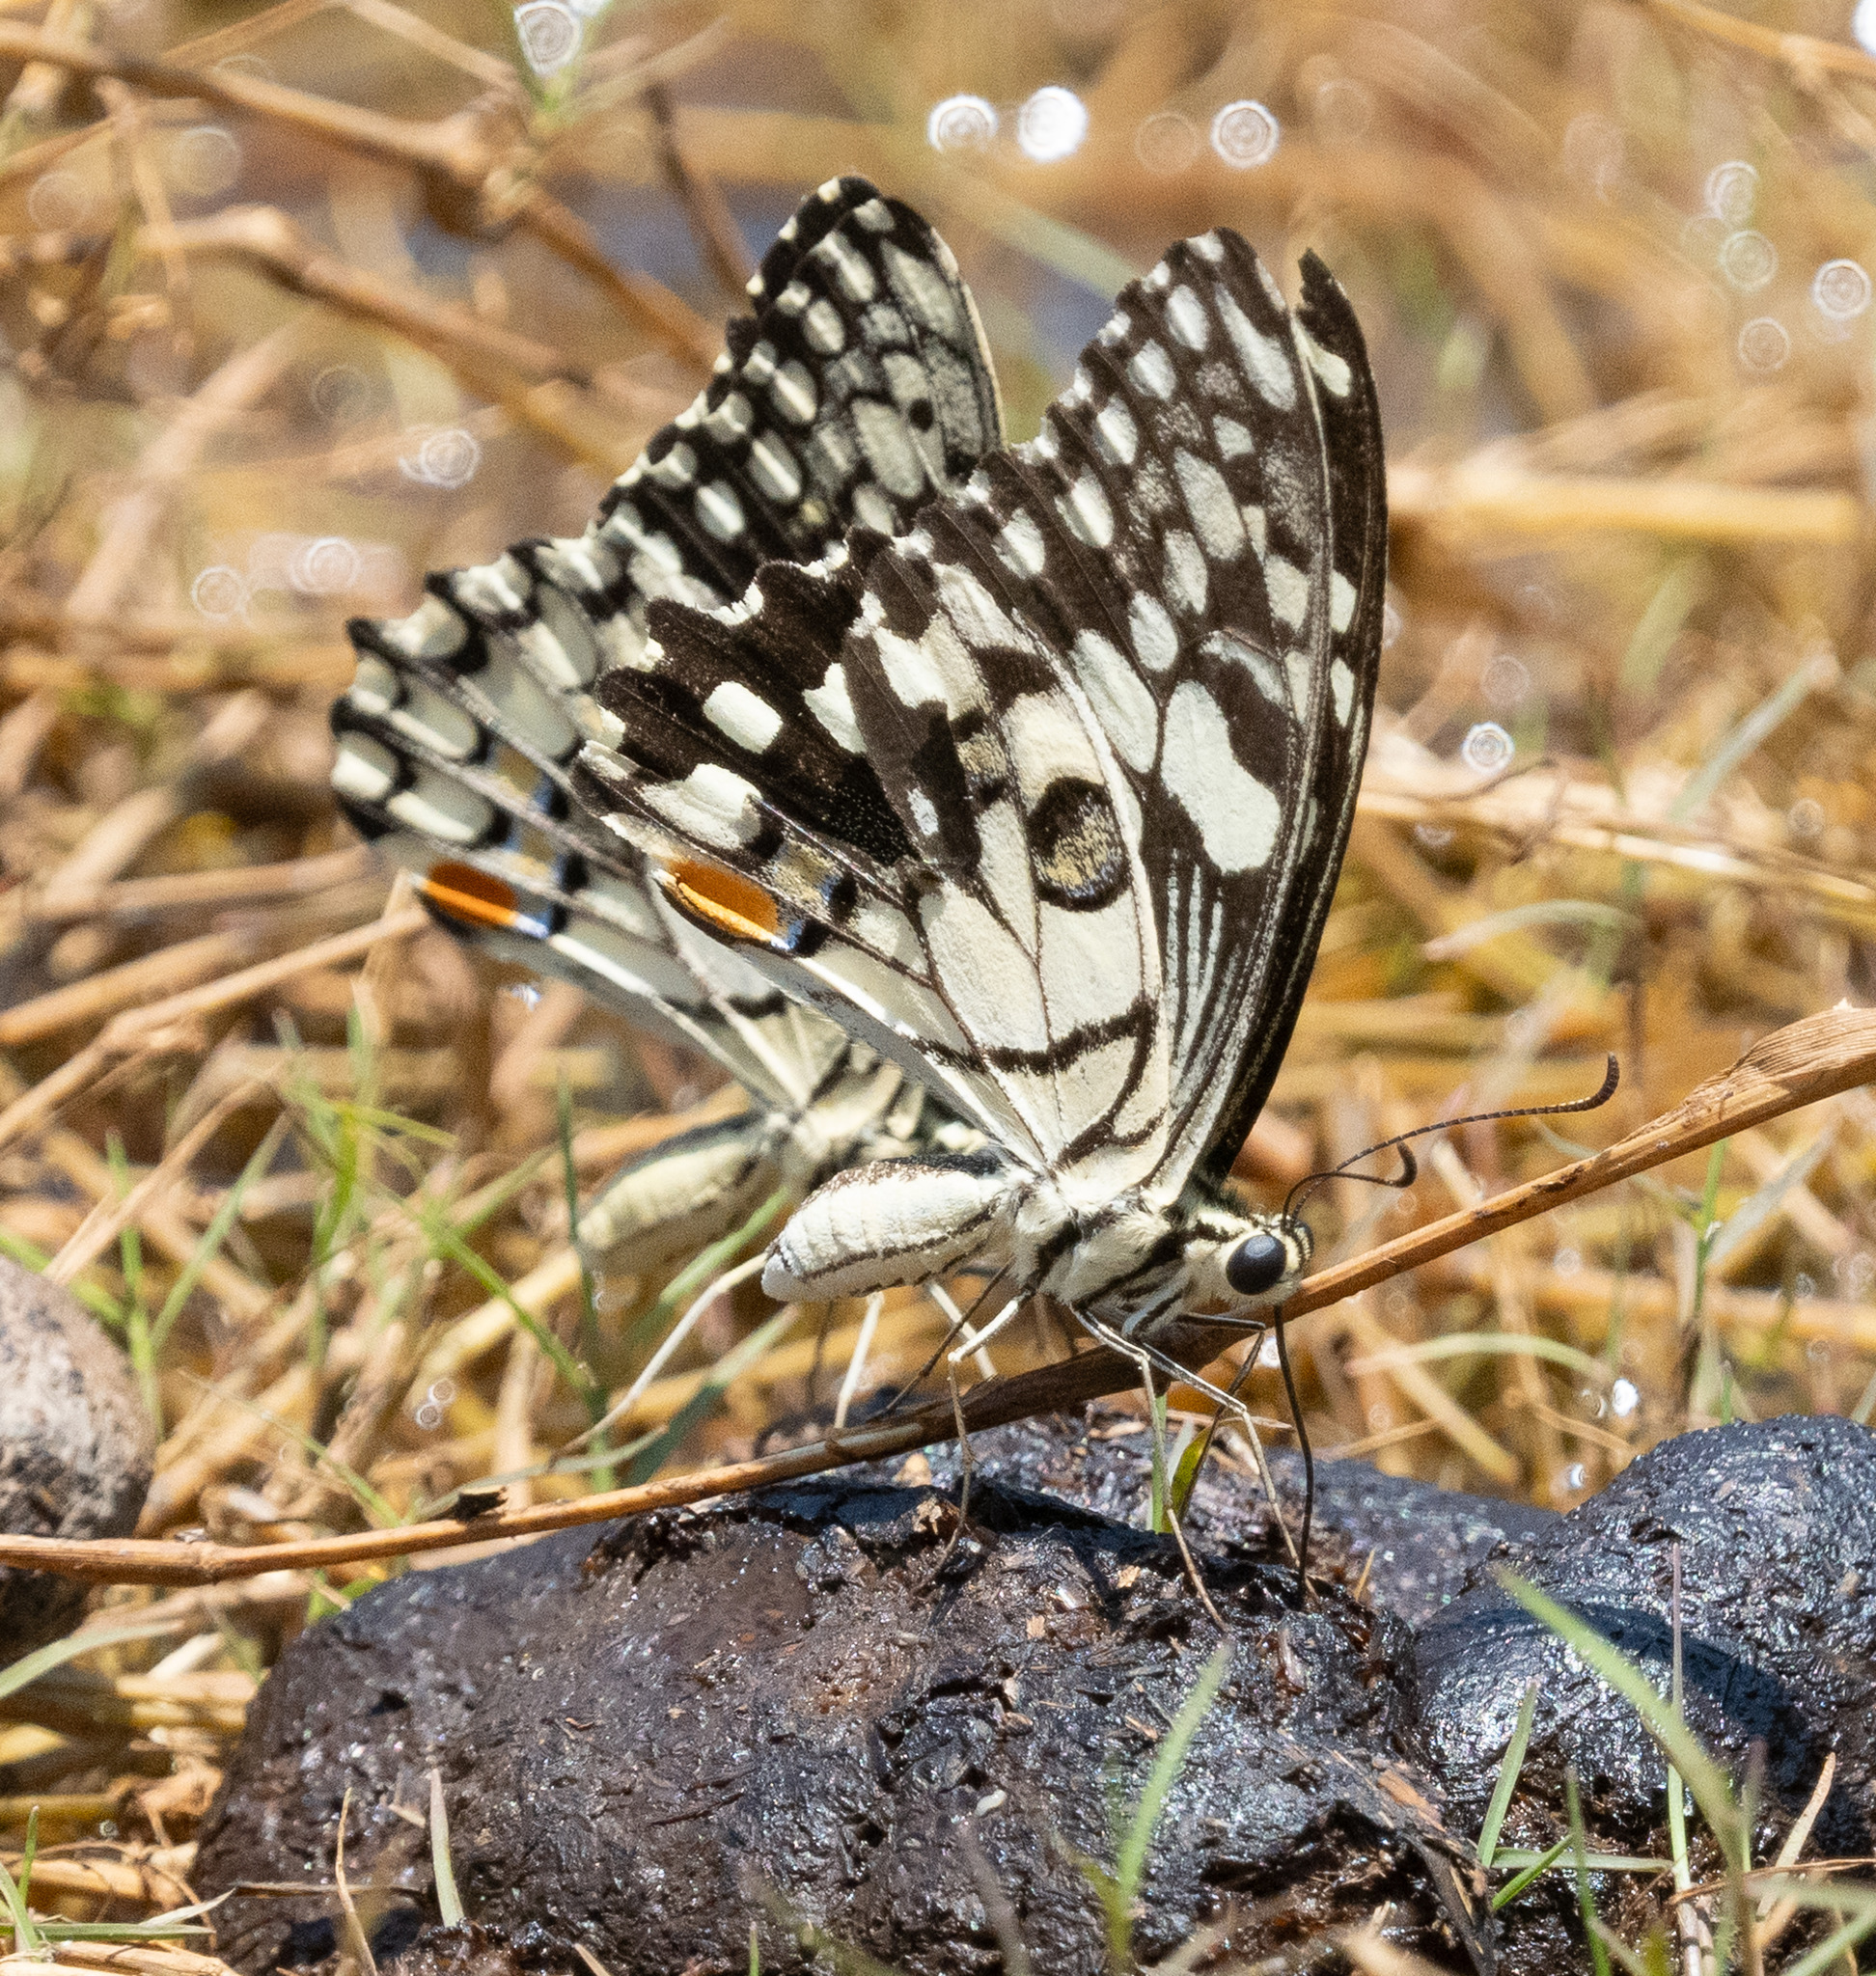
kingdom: Animalia
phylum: Arthropoda
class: Insecta
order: Lepidoptera
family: Papilionidae
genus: Papilio
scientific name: Papilio demoleus
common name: Lime butterfly
